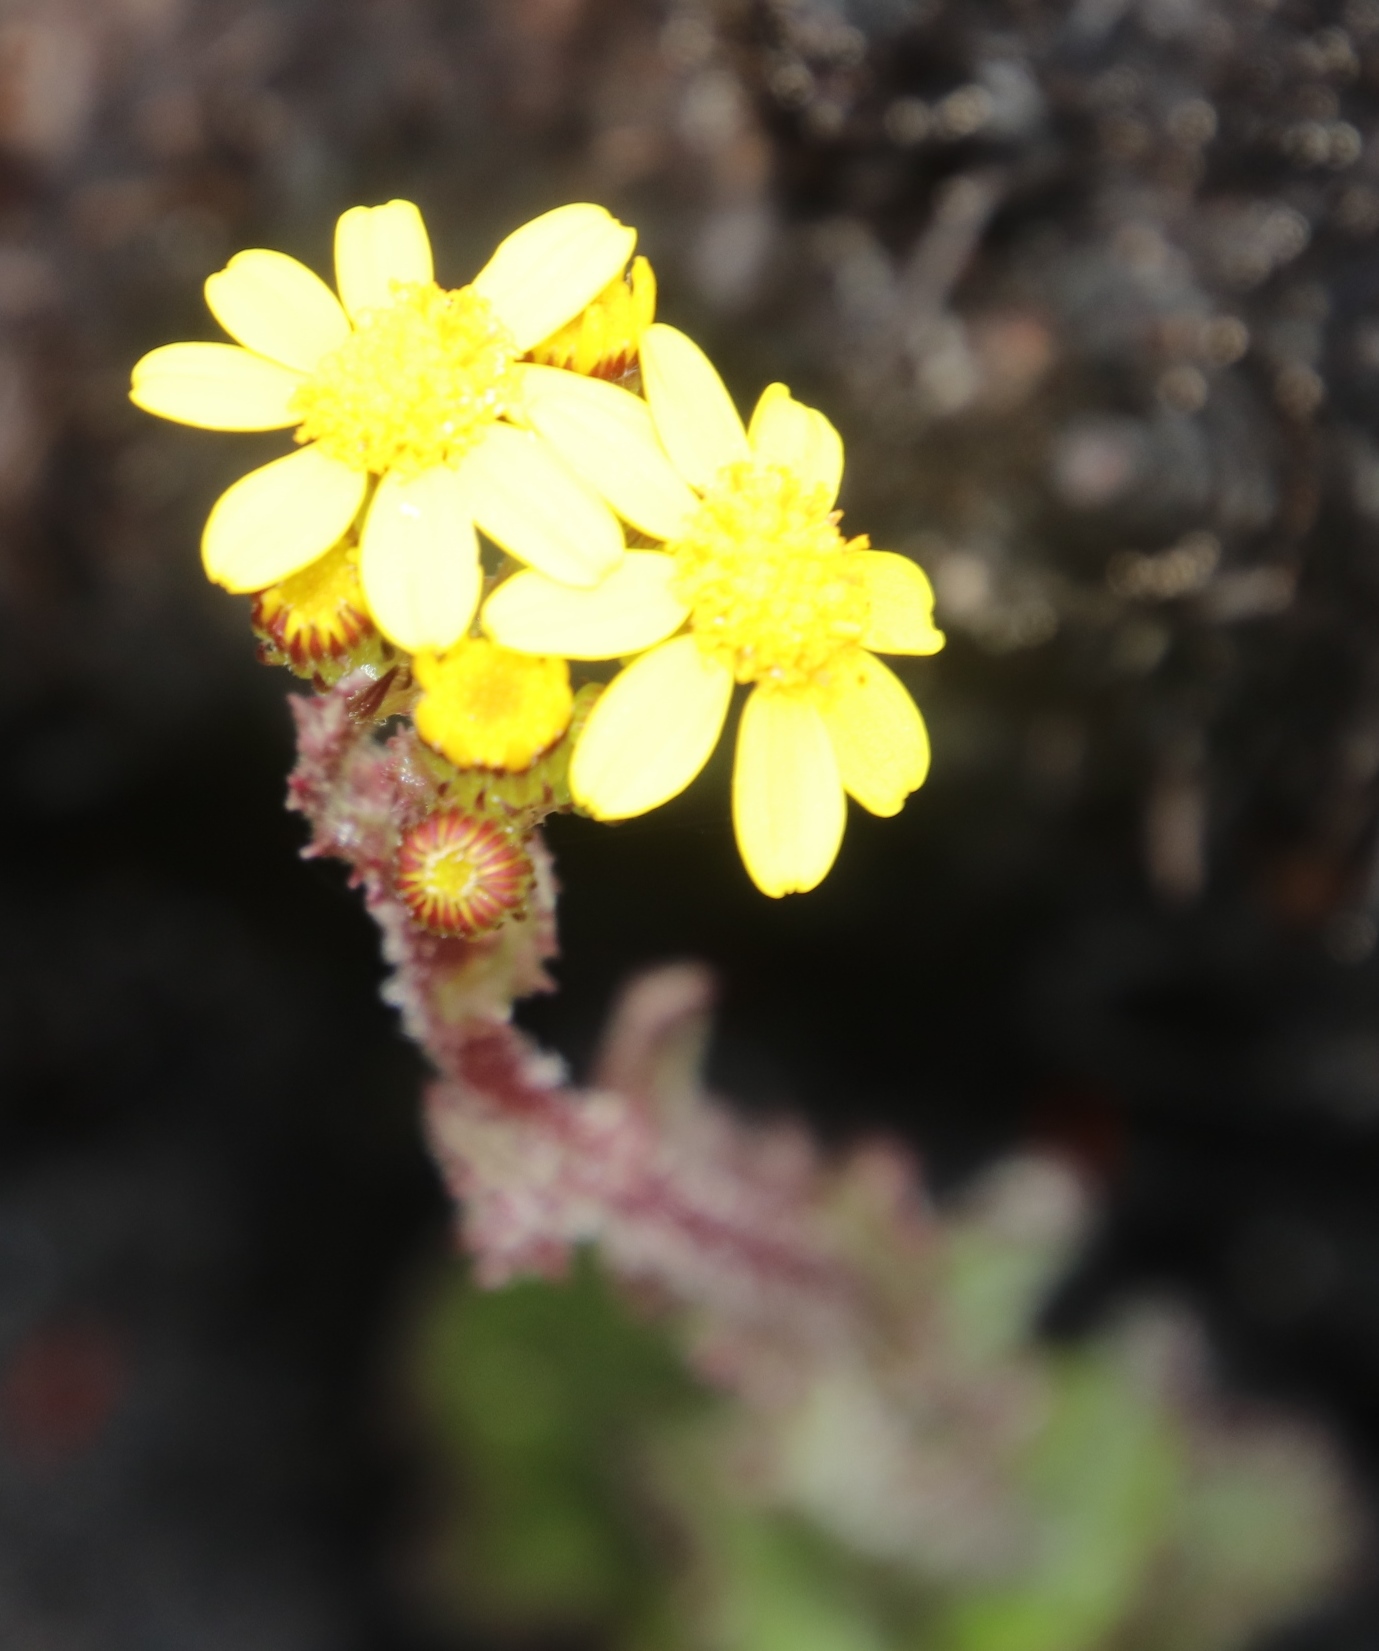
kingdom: Plantae
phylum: Tracheophyta
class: Magnoliopsida
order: Asterales
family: Asteraceae
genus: Senecio
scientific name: Senecio hastatus
